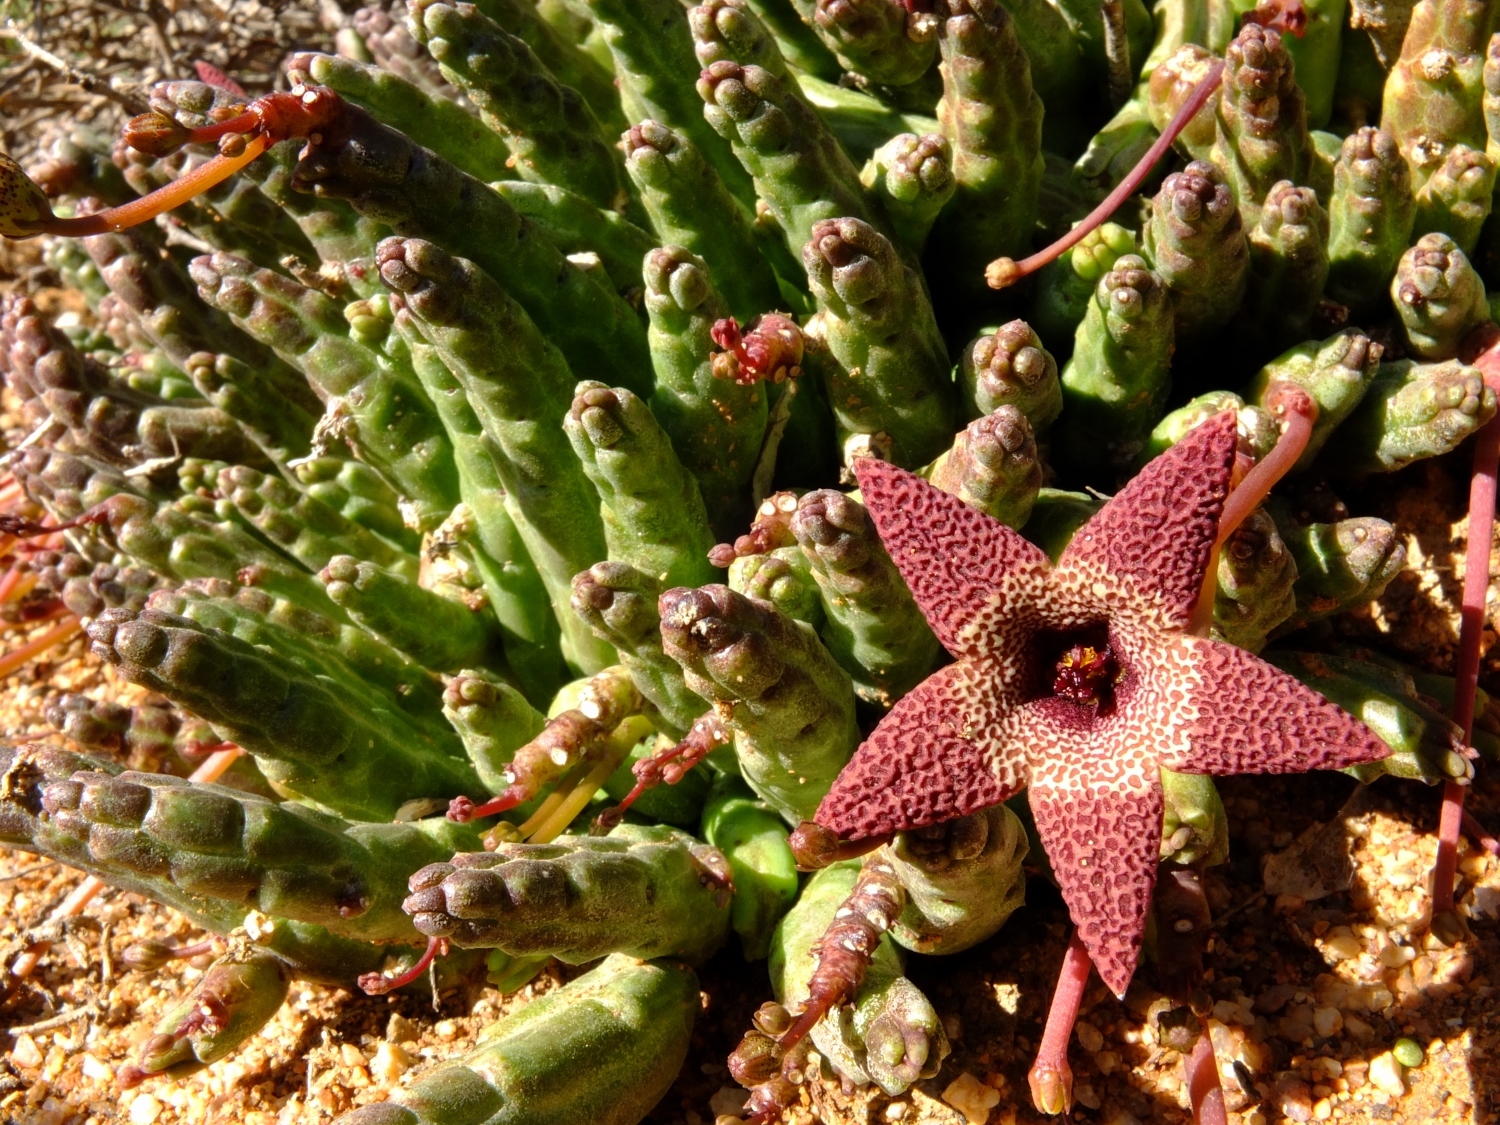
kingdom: Plantae
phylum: Tracheophyta
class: Magnoliopsida
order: Gentianales
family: Apocynaceae
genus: Ceropegia
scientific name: Ceropegia aperta
